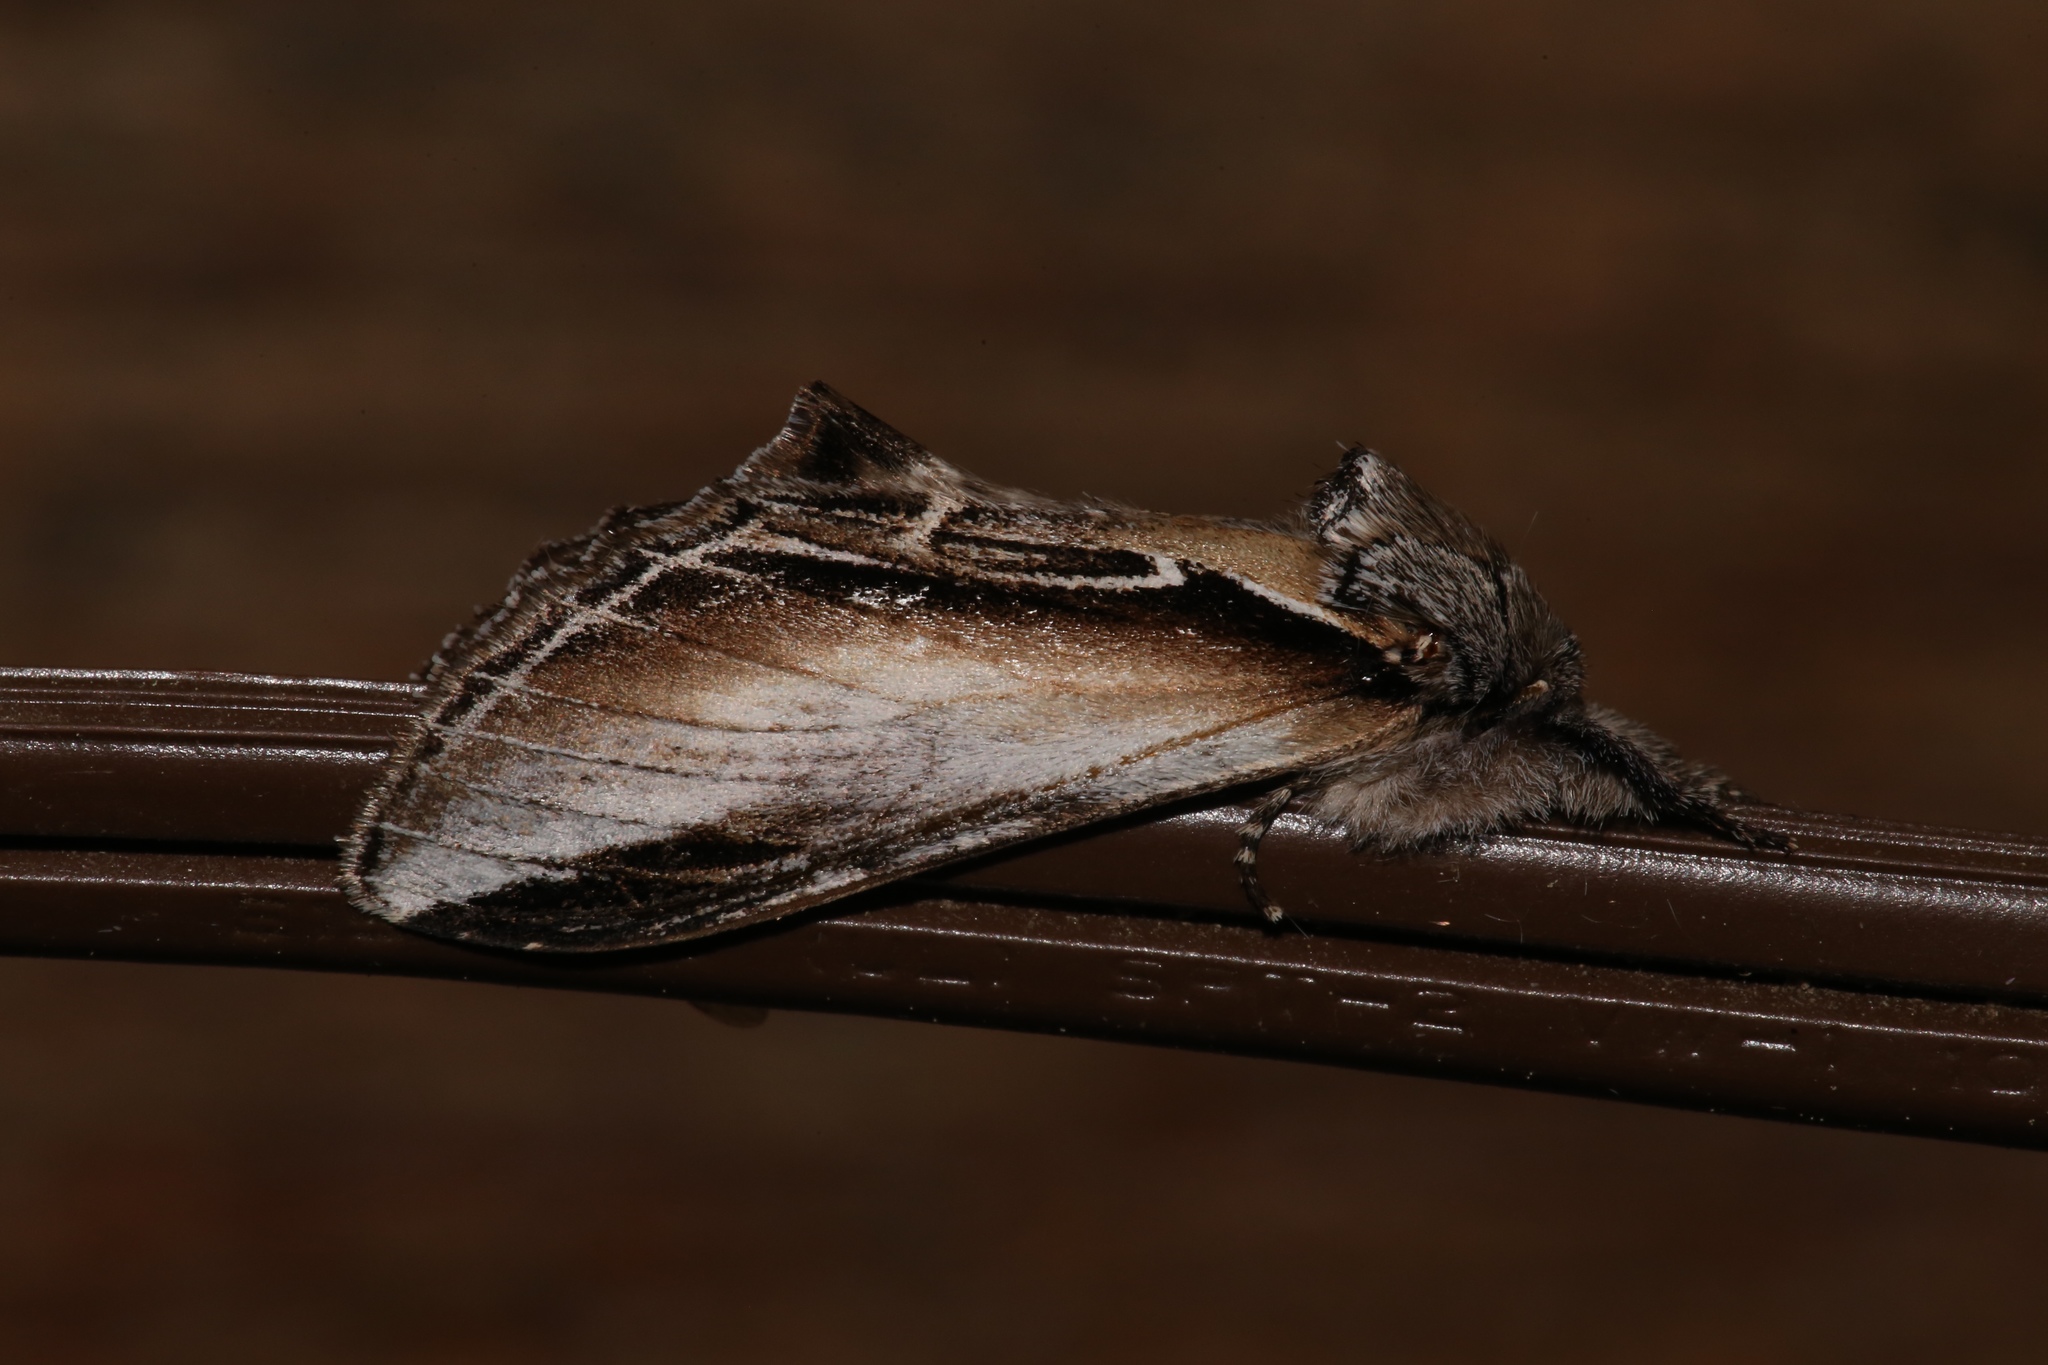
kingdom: Animalia
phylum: Arthropoda
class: Insecta
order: Lepidoptera
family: Notodontidae
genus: Pheosia
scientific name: Pheosia rimosa
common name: Black-rimmed prominent
